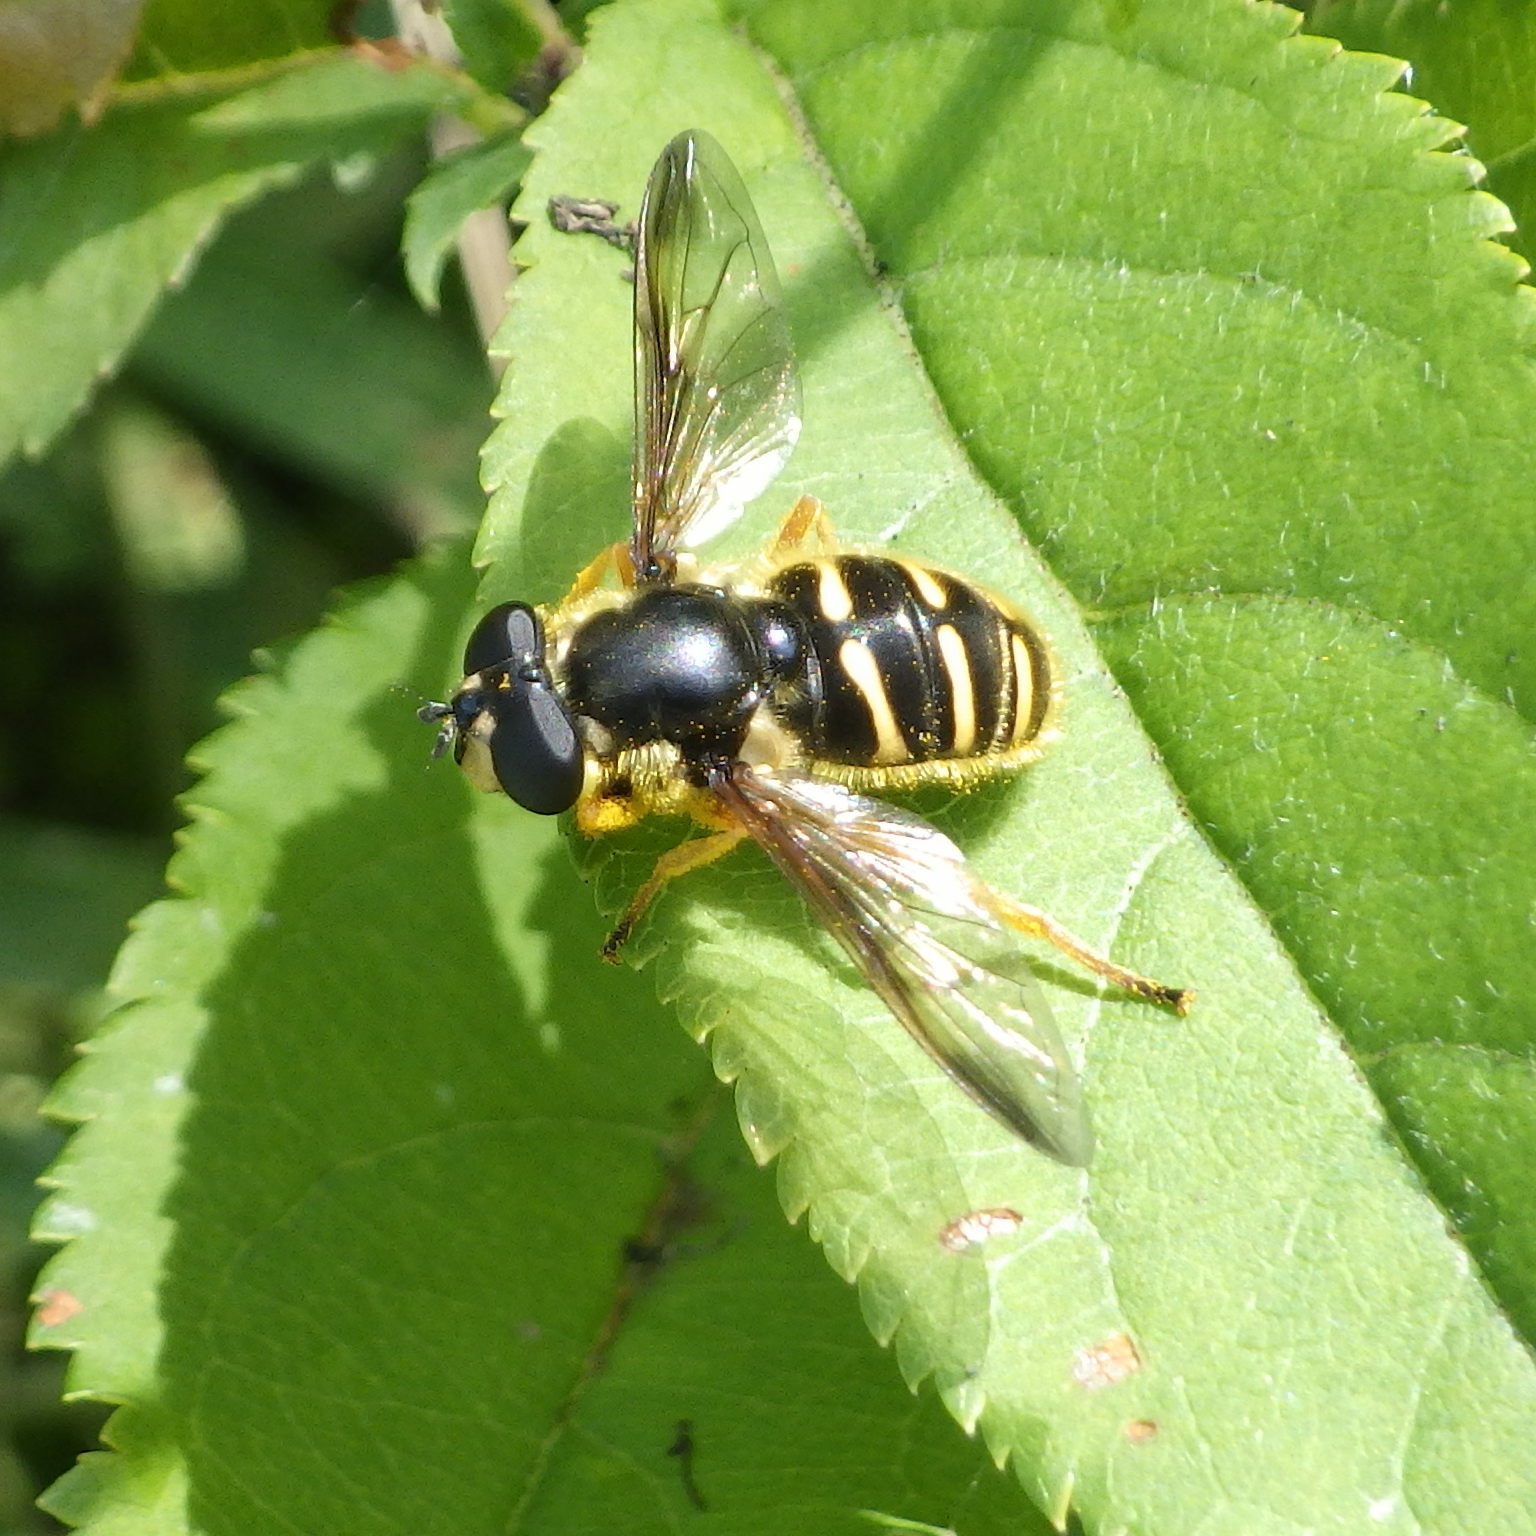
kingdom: Animalia
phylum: Arthropoda
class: Insecta
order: Diptera
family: Syrphidae
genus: Sericomyia
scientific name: Sericomyia chrysotoxoides
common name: Oblique-banded pond fly
